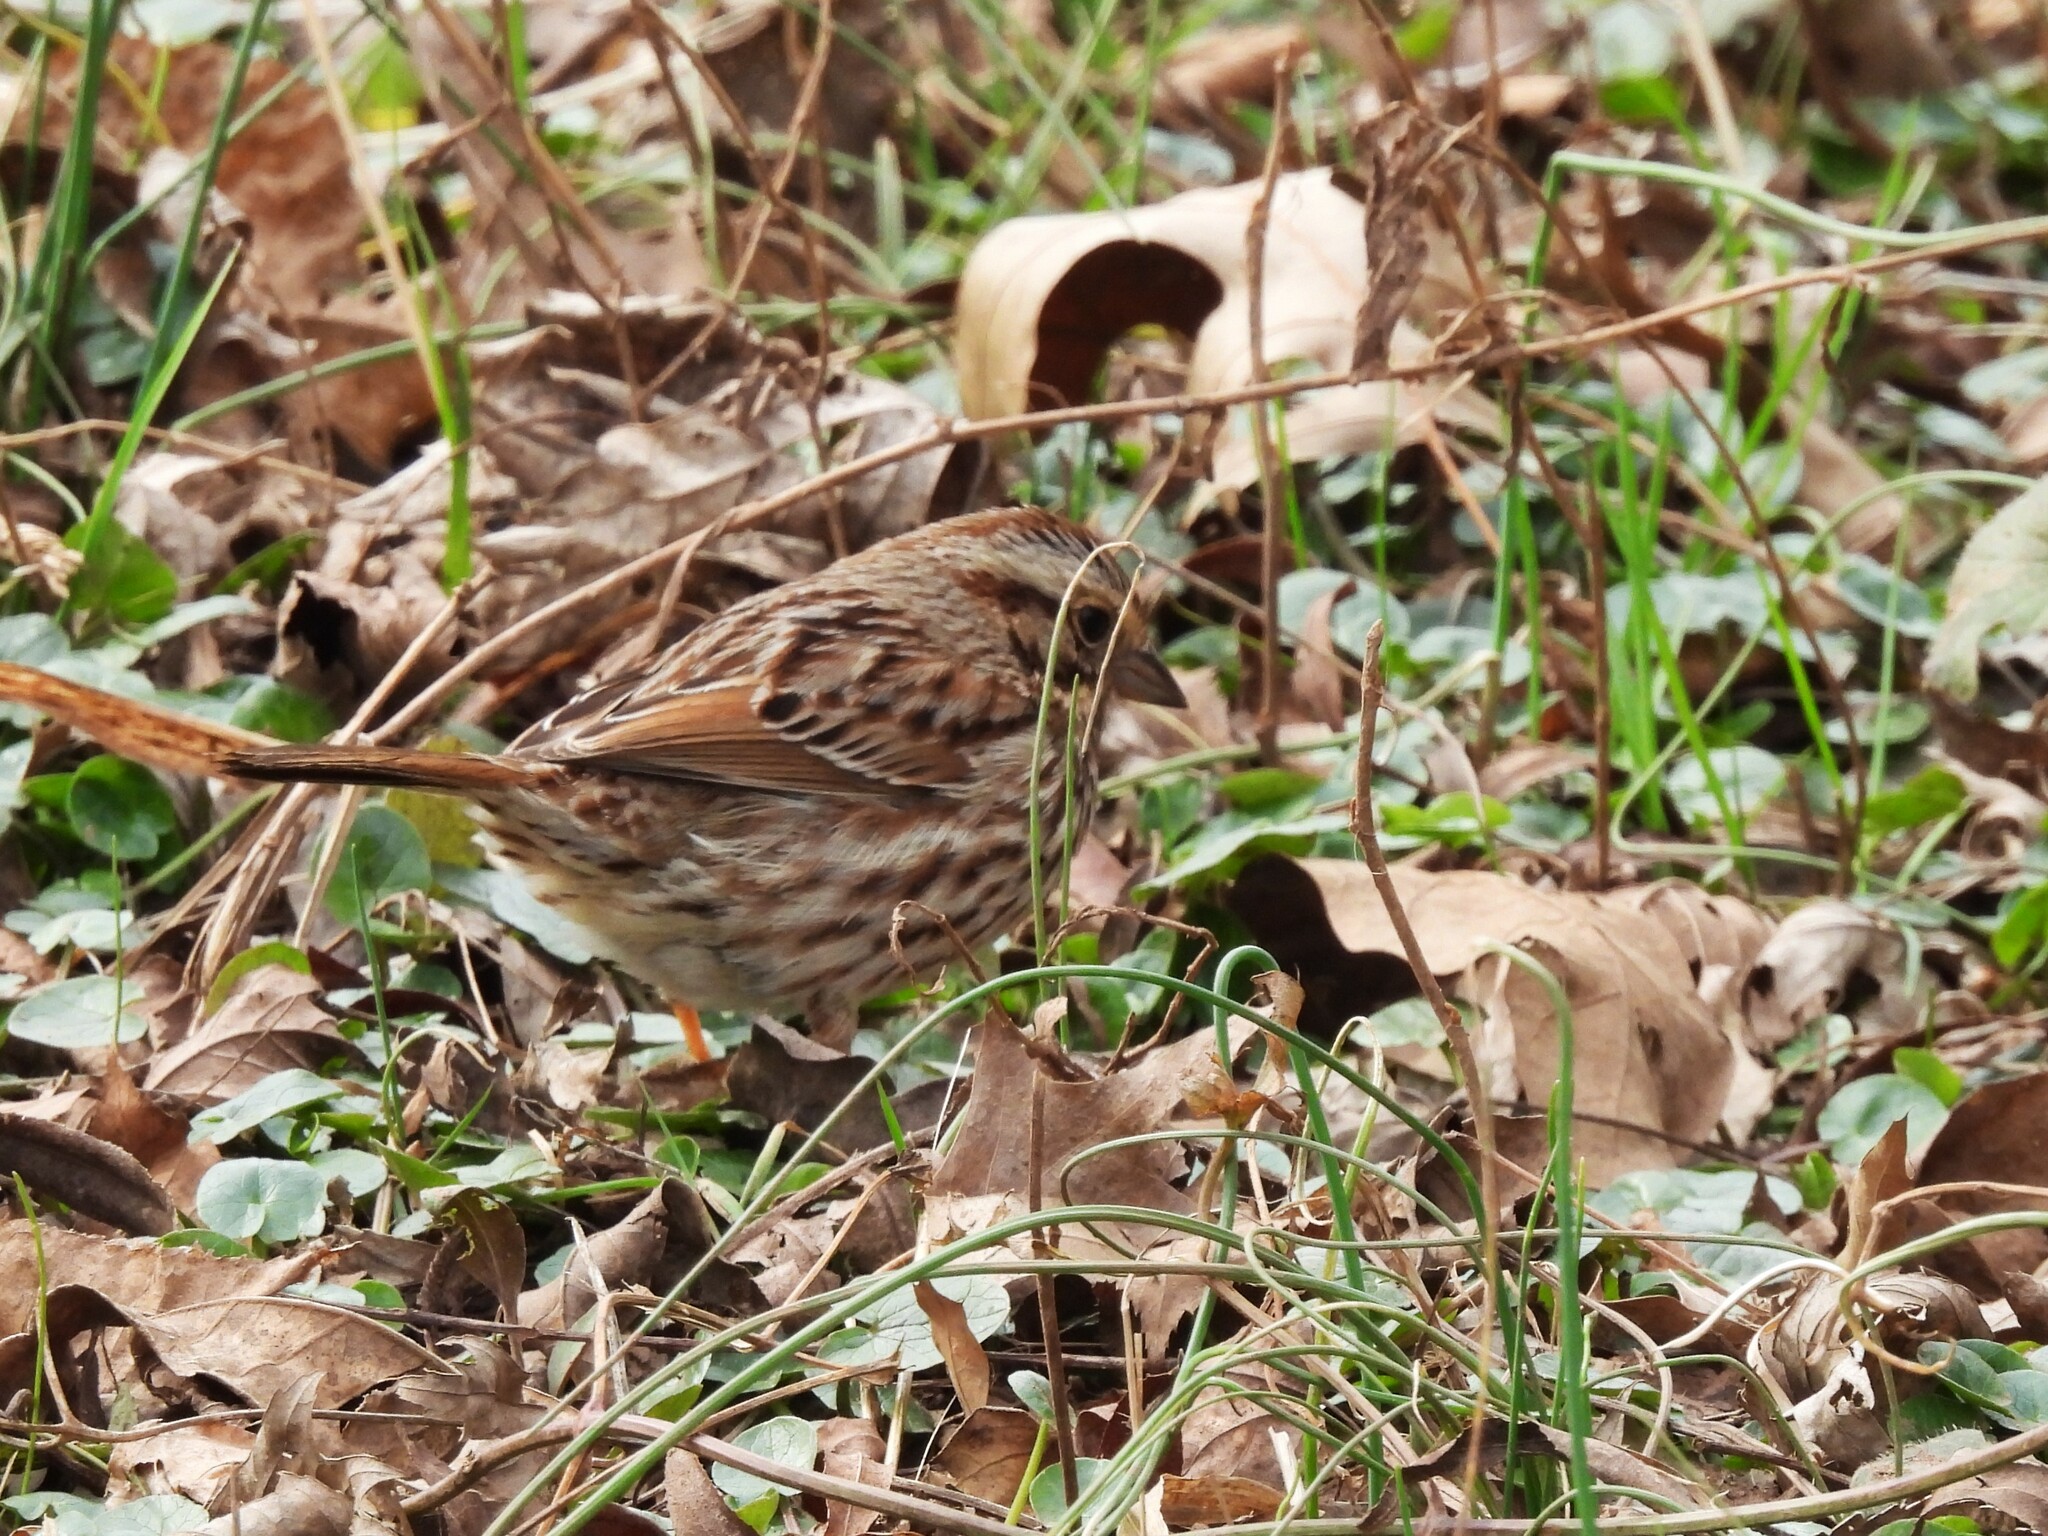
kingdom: Animalia
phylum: Chordata
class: Aves
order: Passeriformes
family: Passerellidae
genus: Melospiza
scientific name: Melospiza melodia
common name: Song sparrow
